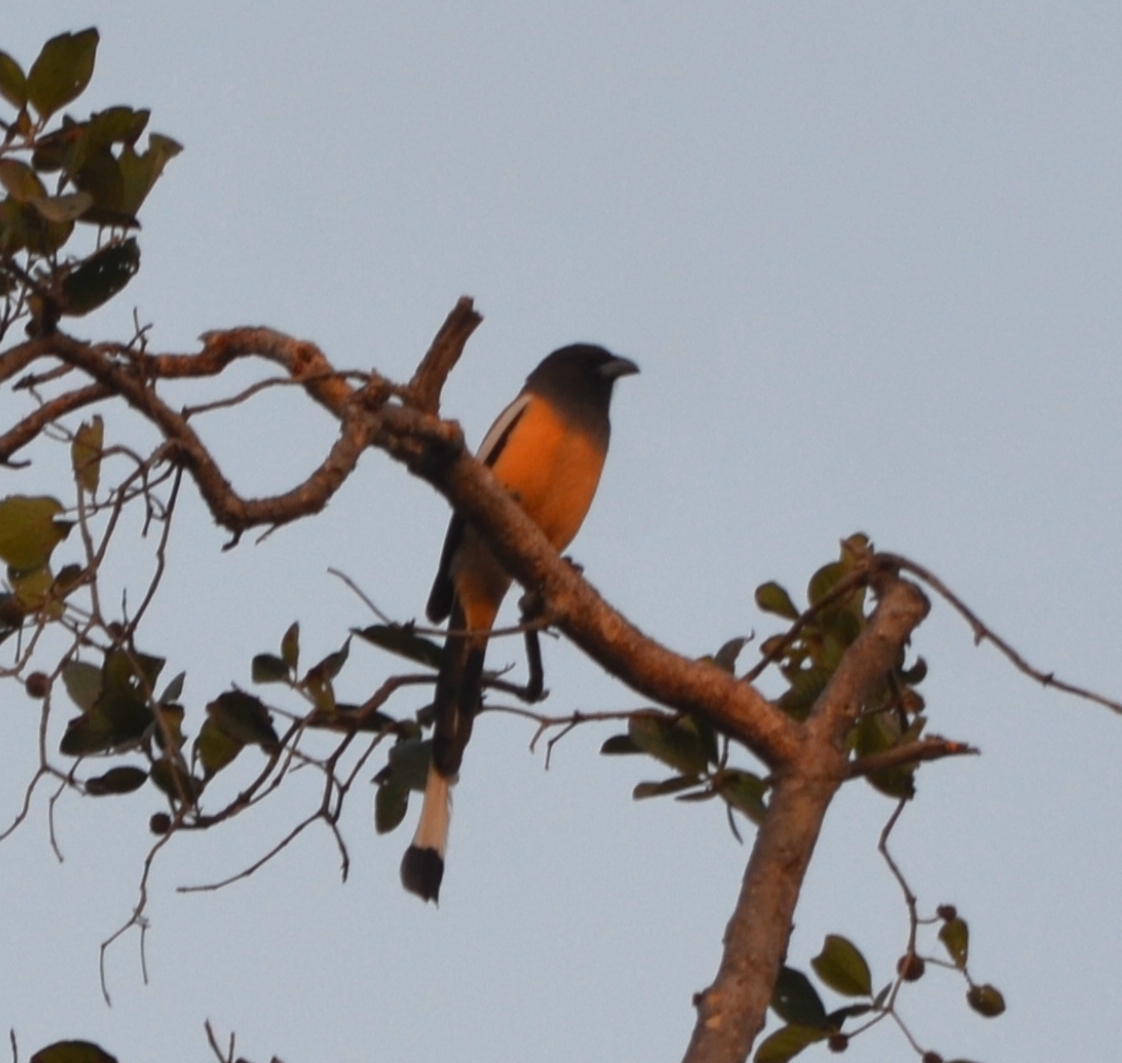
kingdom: Animalia
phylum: Chordata
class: Aves
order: Passeriformes
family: Corvidae
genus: Dendrocitta
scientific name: Dendrocitta vagabunda
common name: Rufous treepie
